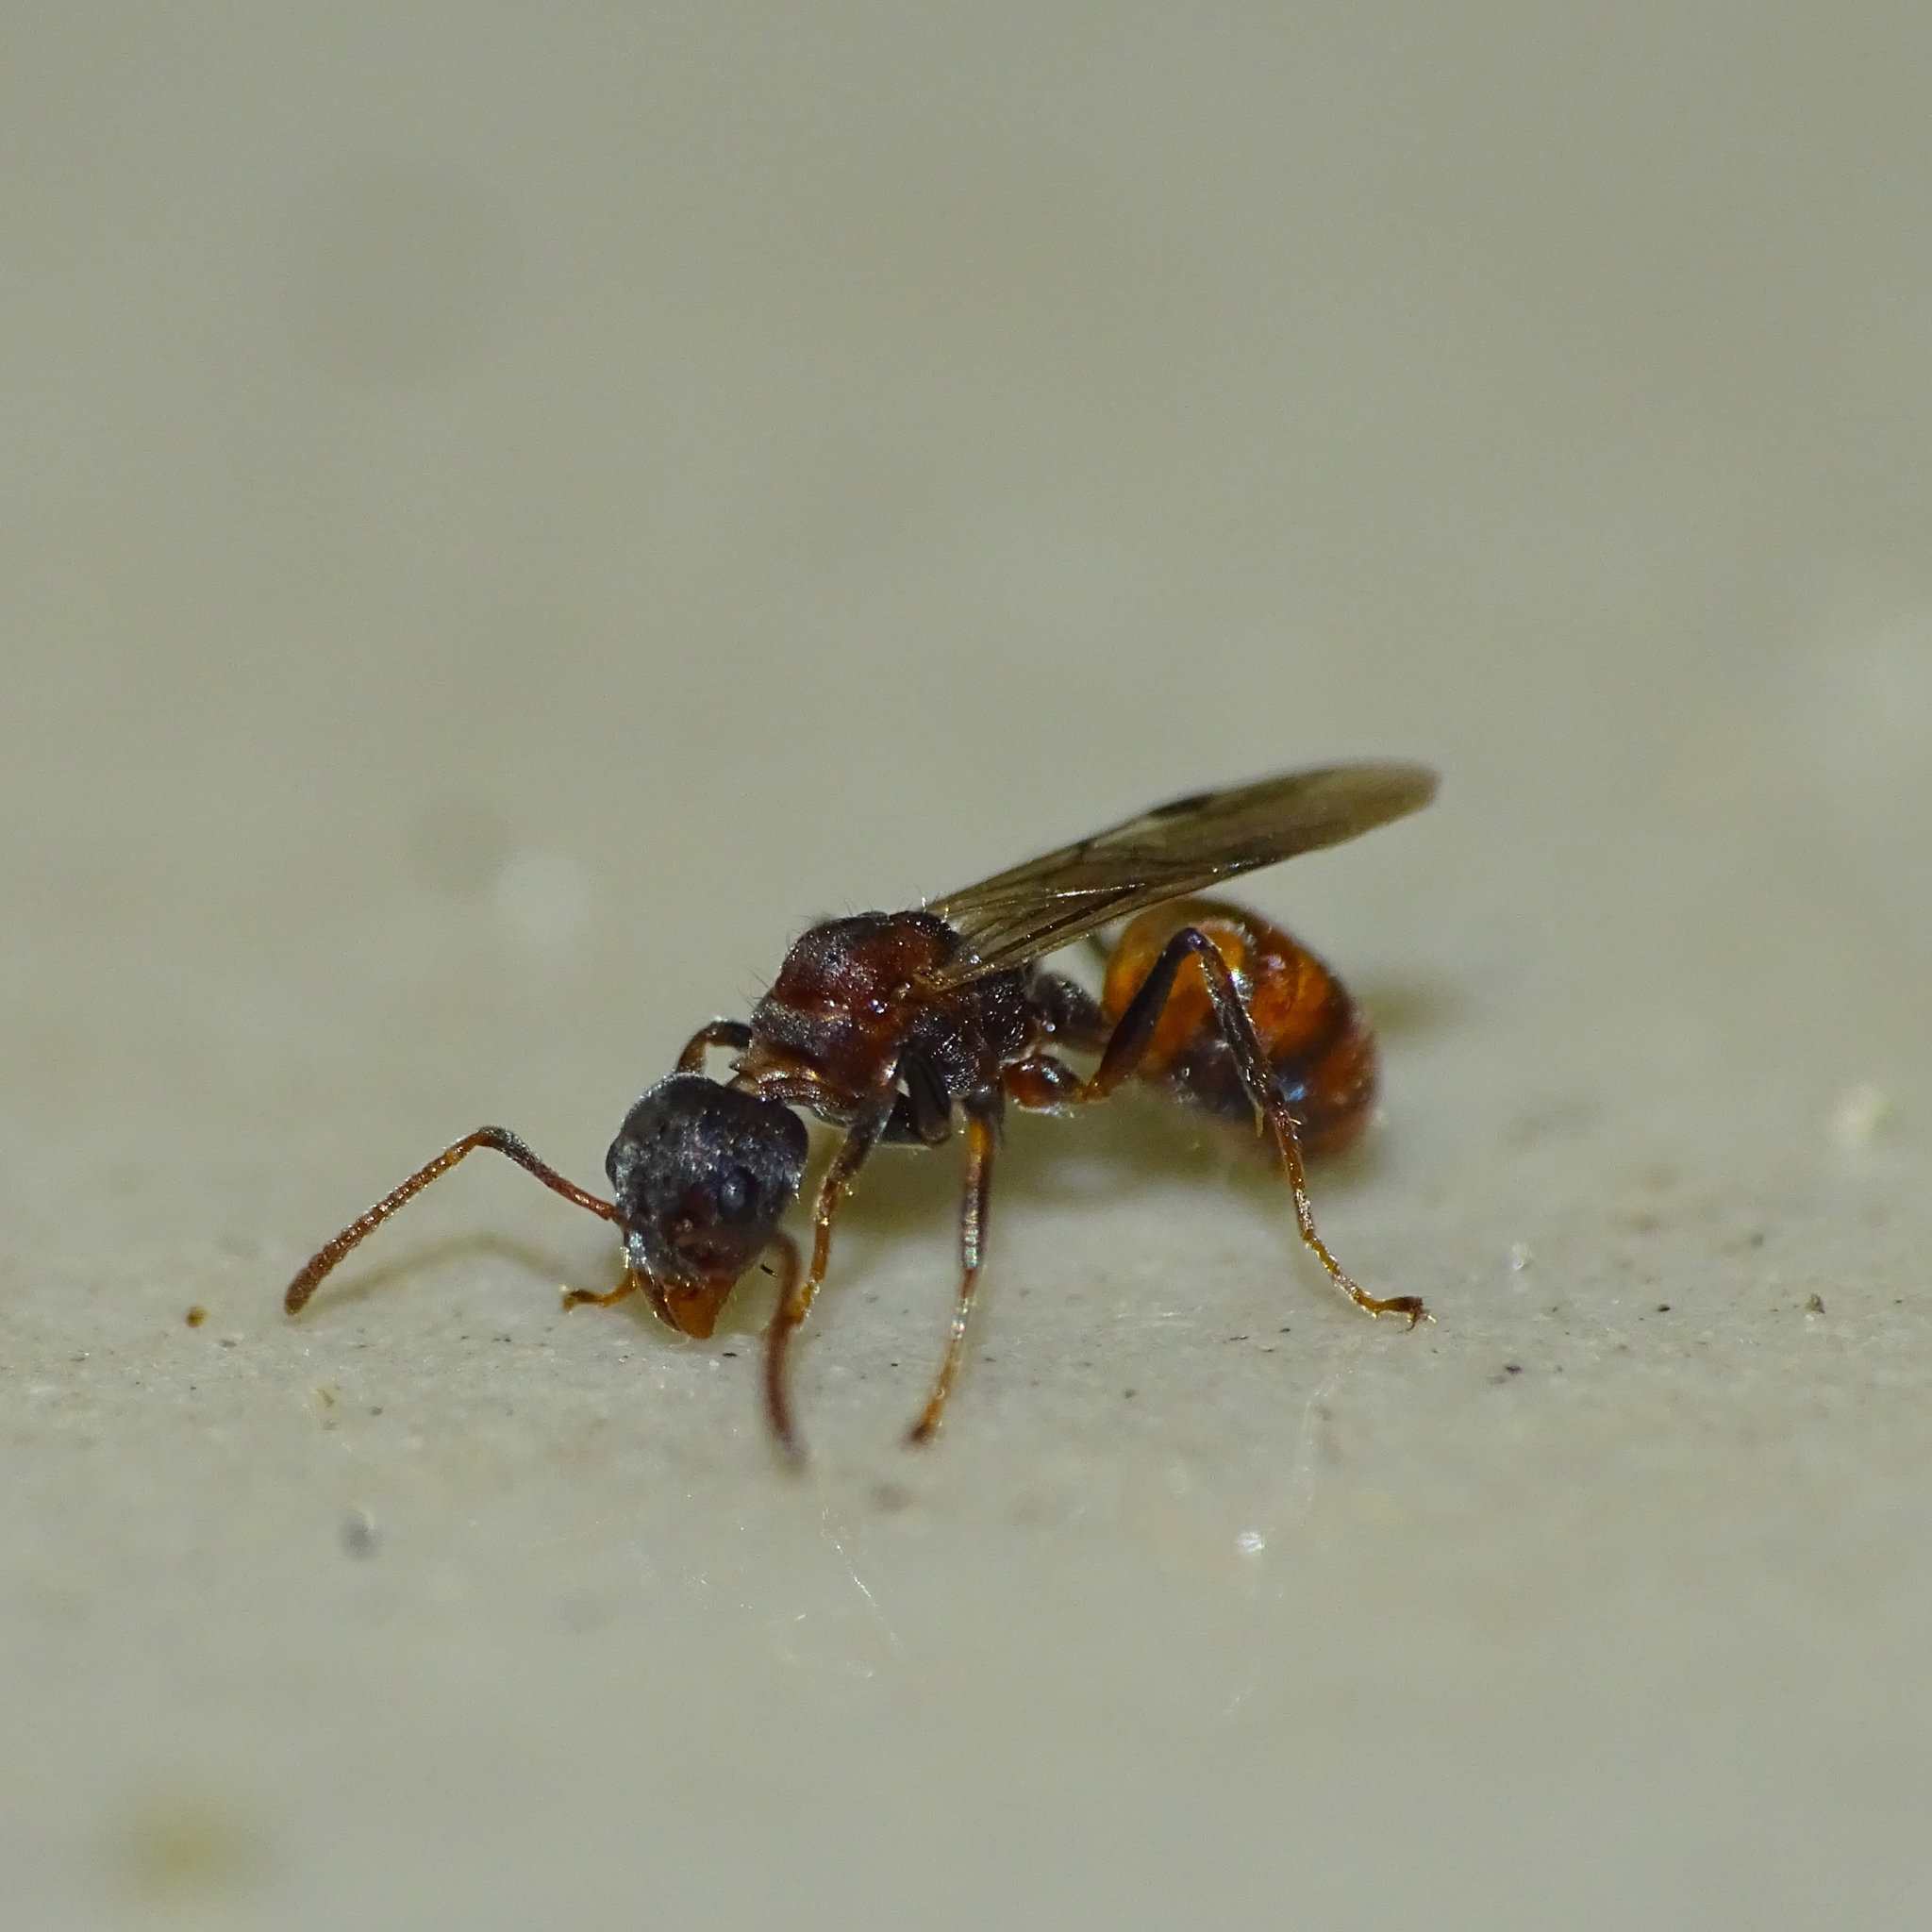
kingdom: Animalia
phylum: Arthropoda
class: Insecta
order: Hymenoptera
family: Formicidae
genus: Dolichoderus
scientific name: Dolichoderus taprobanae
